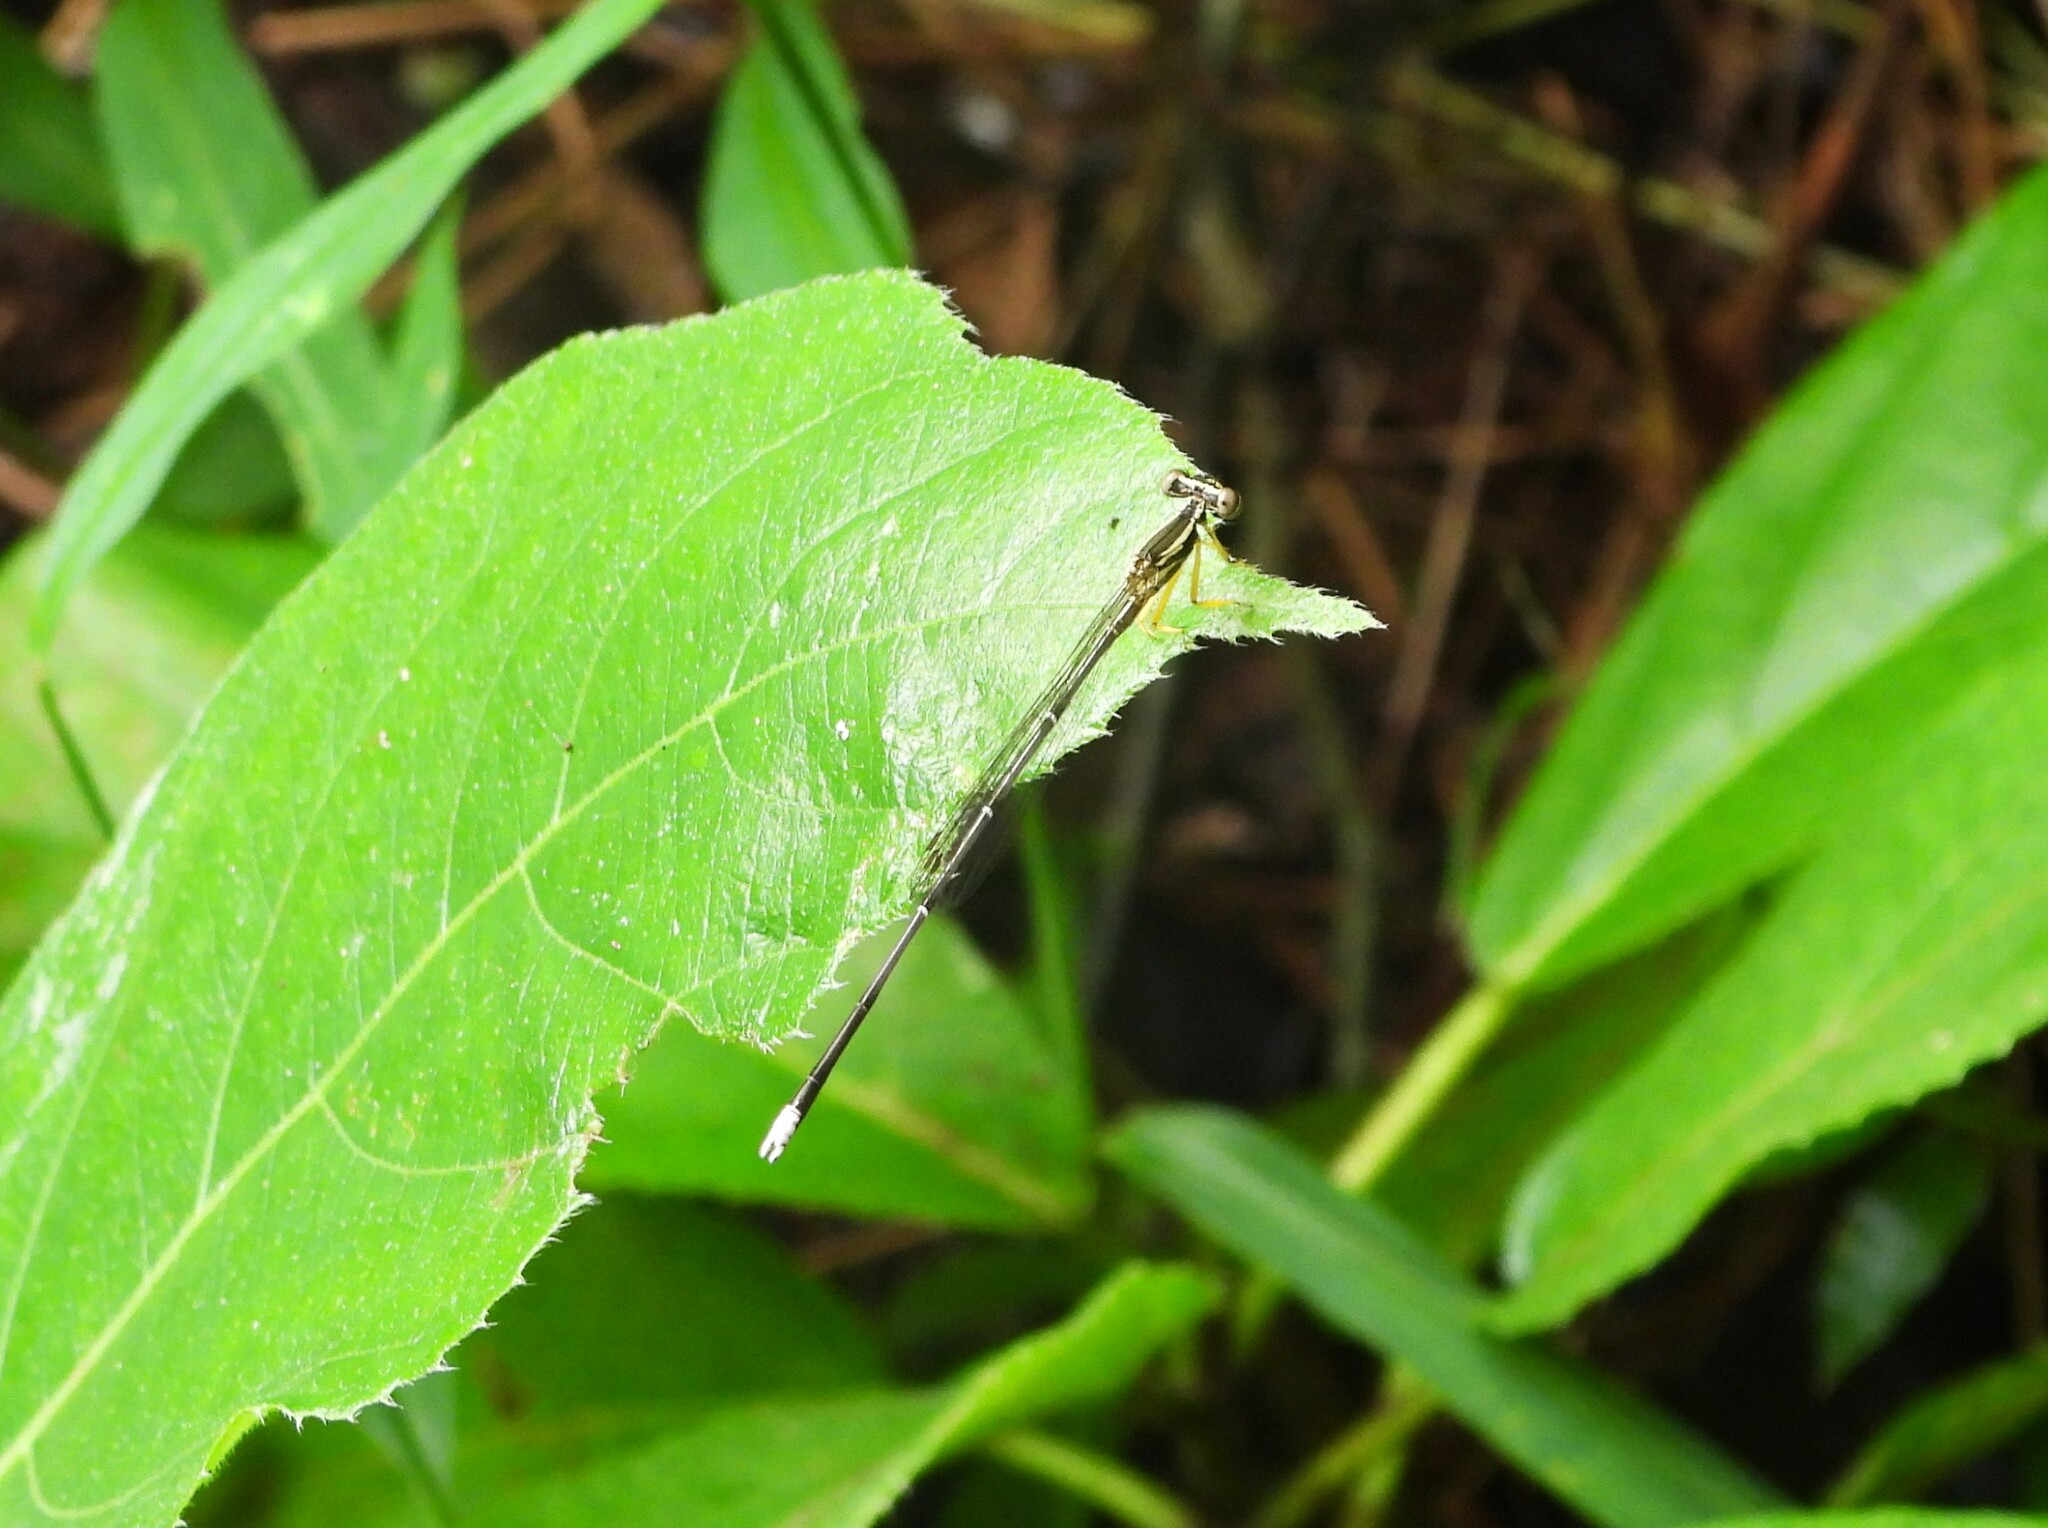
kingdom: Animalia
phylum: Arthropoda
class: Insecta
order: Odonata
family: Platycnemididae
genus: Copera
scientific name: Copera marginipes
